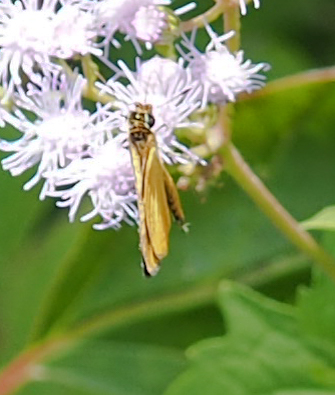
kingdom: Animalia
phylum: Arthropoda
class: Insecta
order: Lepidoptera
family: Hesperiidae
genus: Ancyloxypha
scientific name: Ancyloxypha numitor
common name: Least skipper
